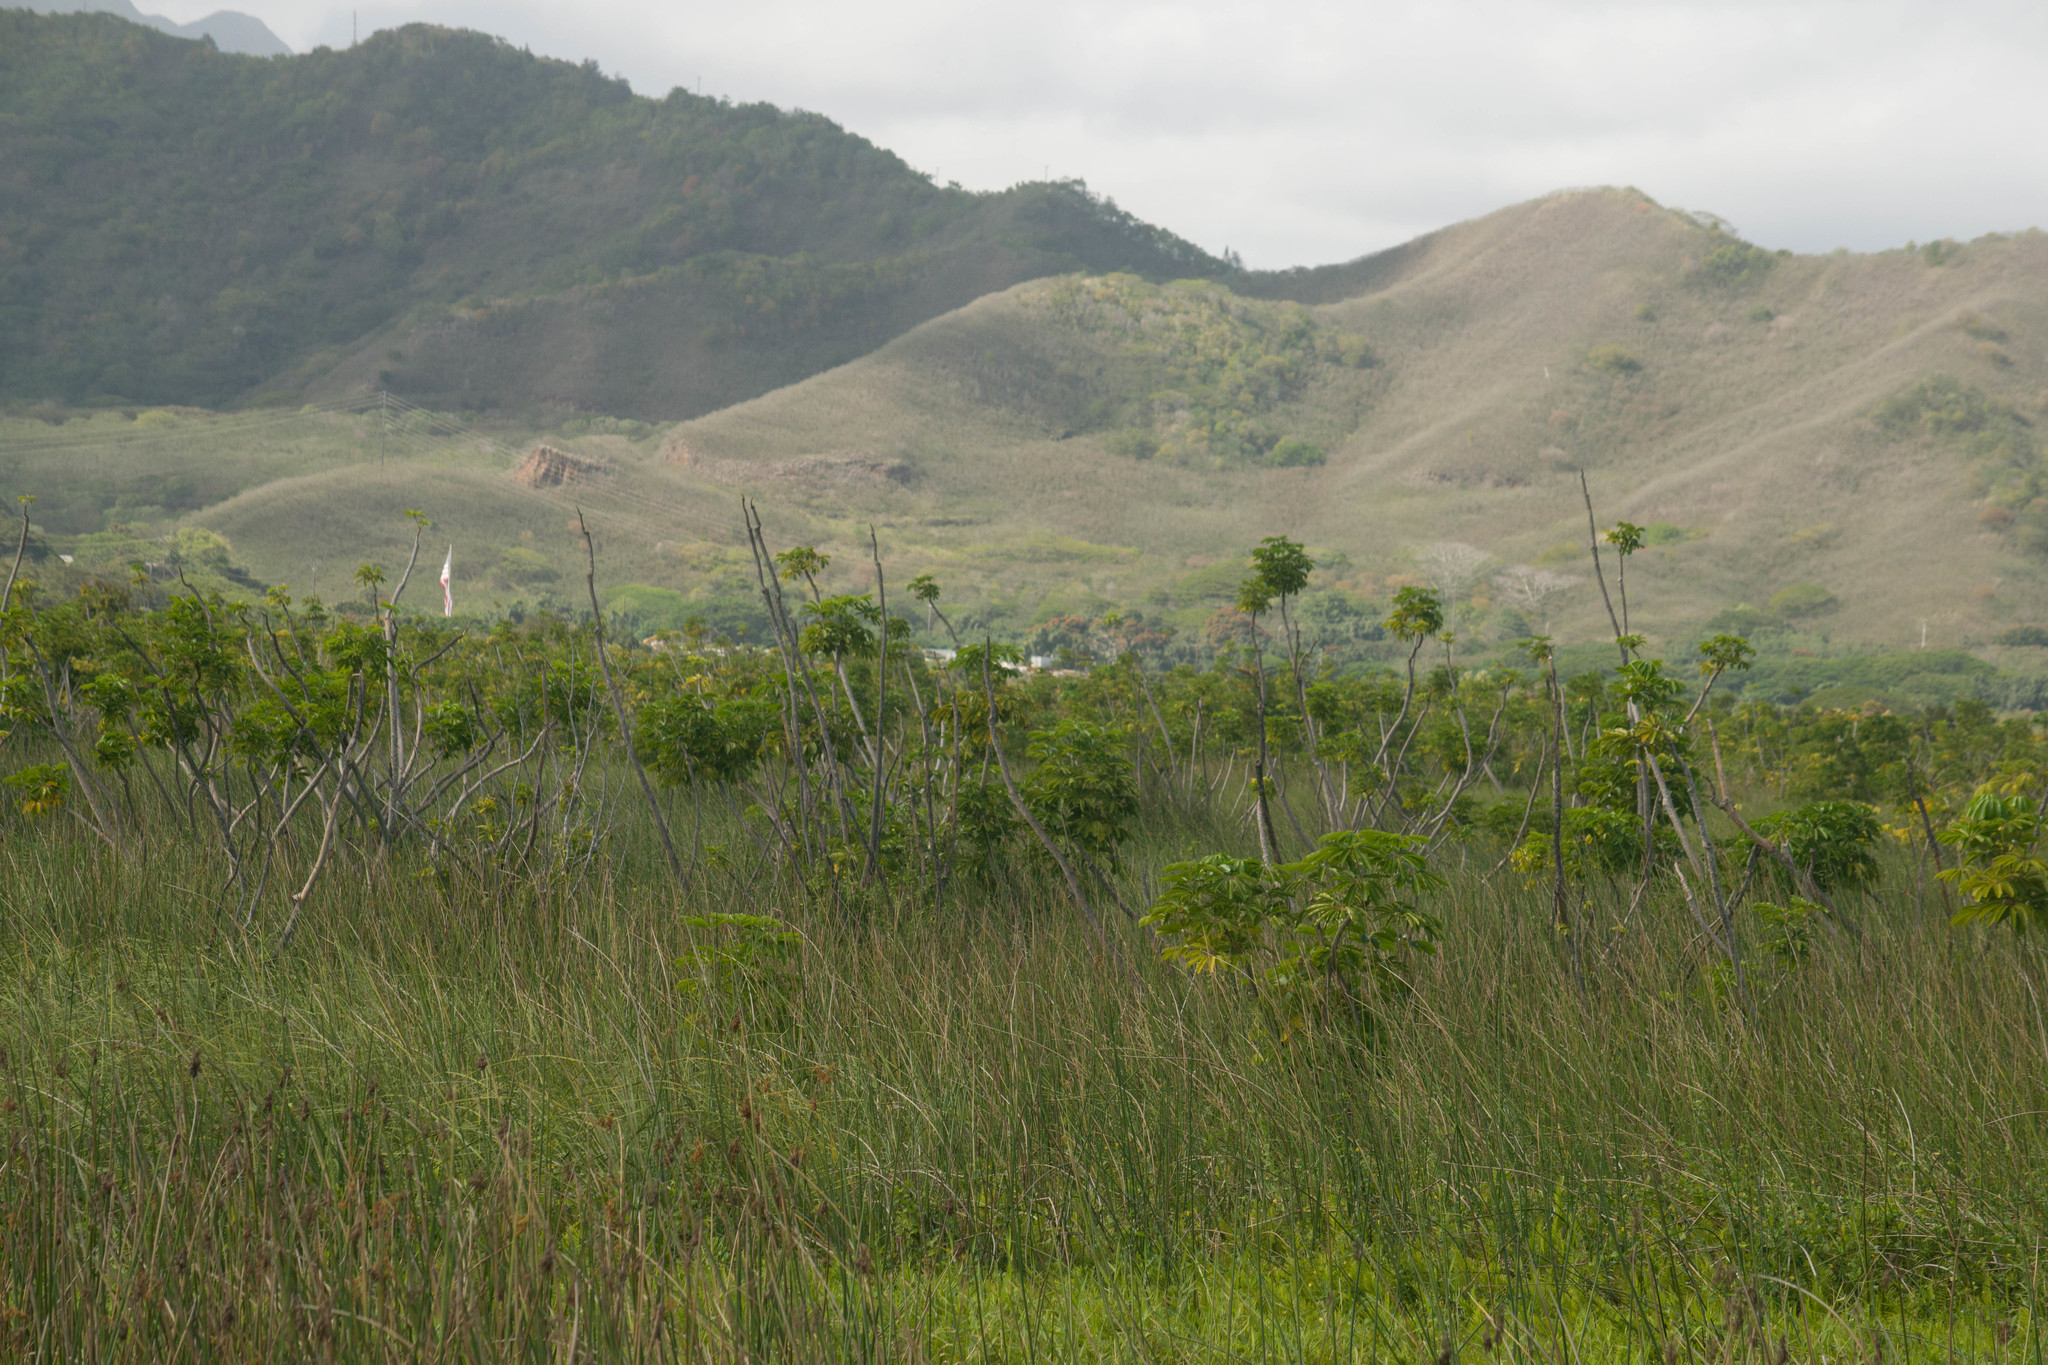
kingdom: Plantae
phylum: Tracheophyta
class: Magnoliopsida
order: Apiales
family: Araliaceae
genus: Heptapleurum
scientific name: Heptapleurum actinophyllum
